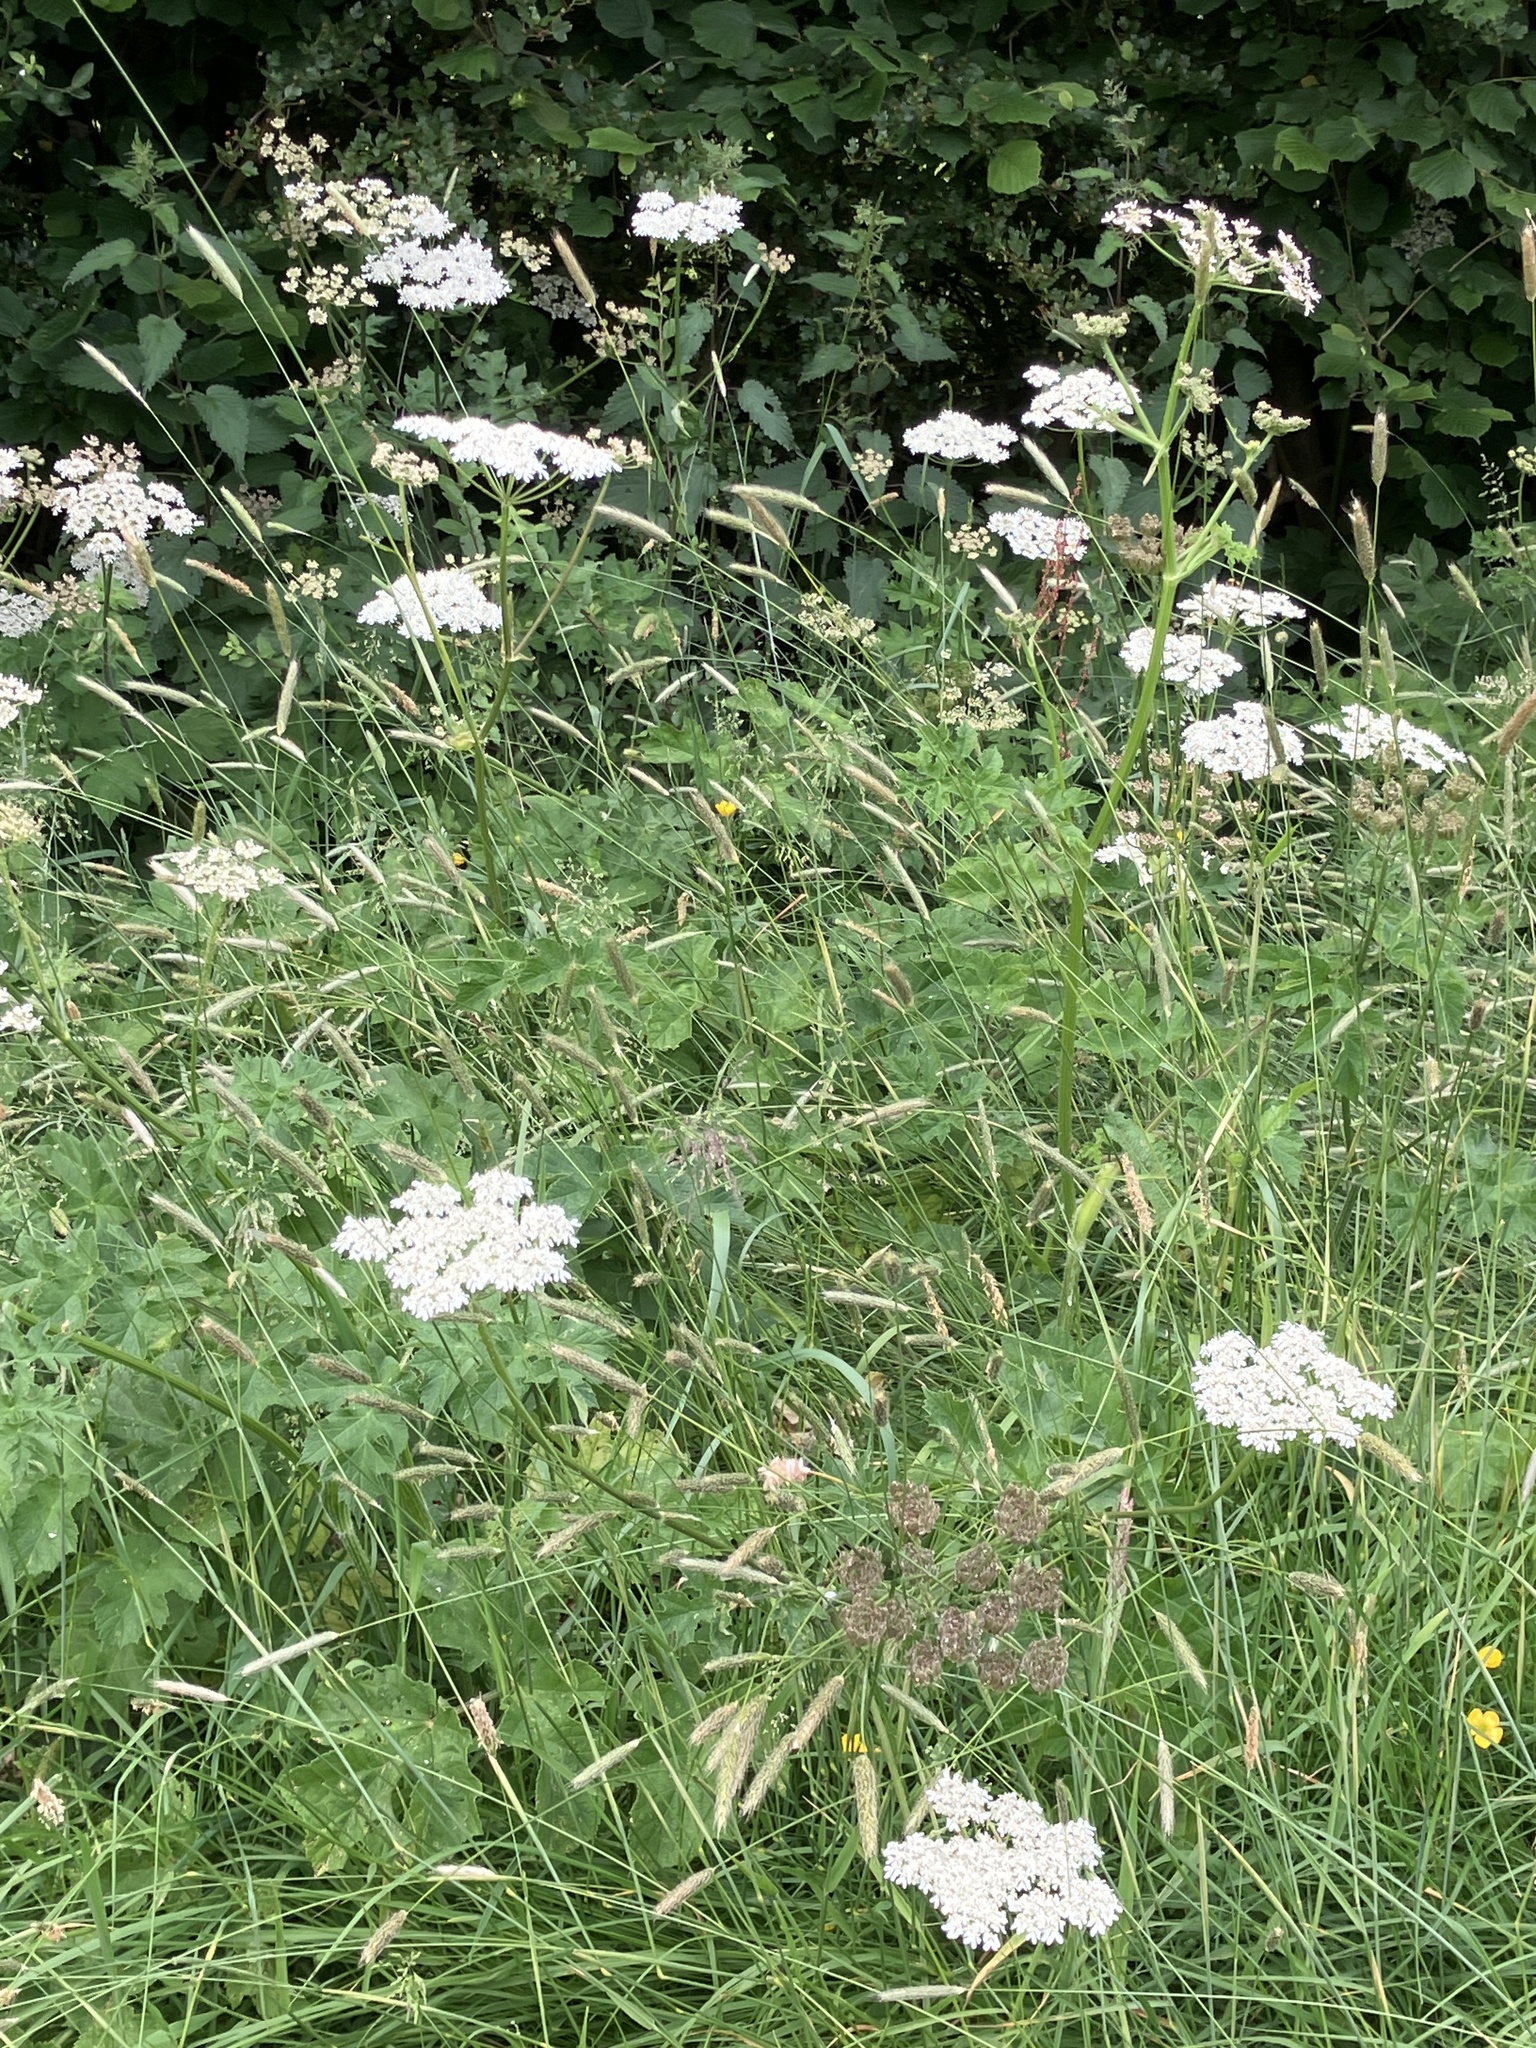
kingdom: Plantae
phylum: Tracheophyta
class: Magnoliopsida
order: Apiales
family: Apiaceae
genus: Heracleum
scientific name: Heracleum sphondylium
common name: Hogweed
